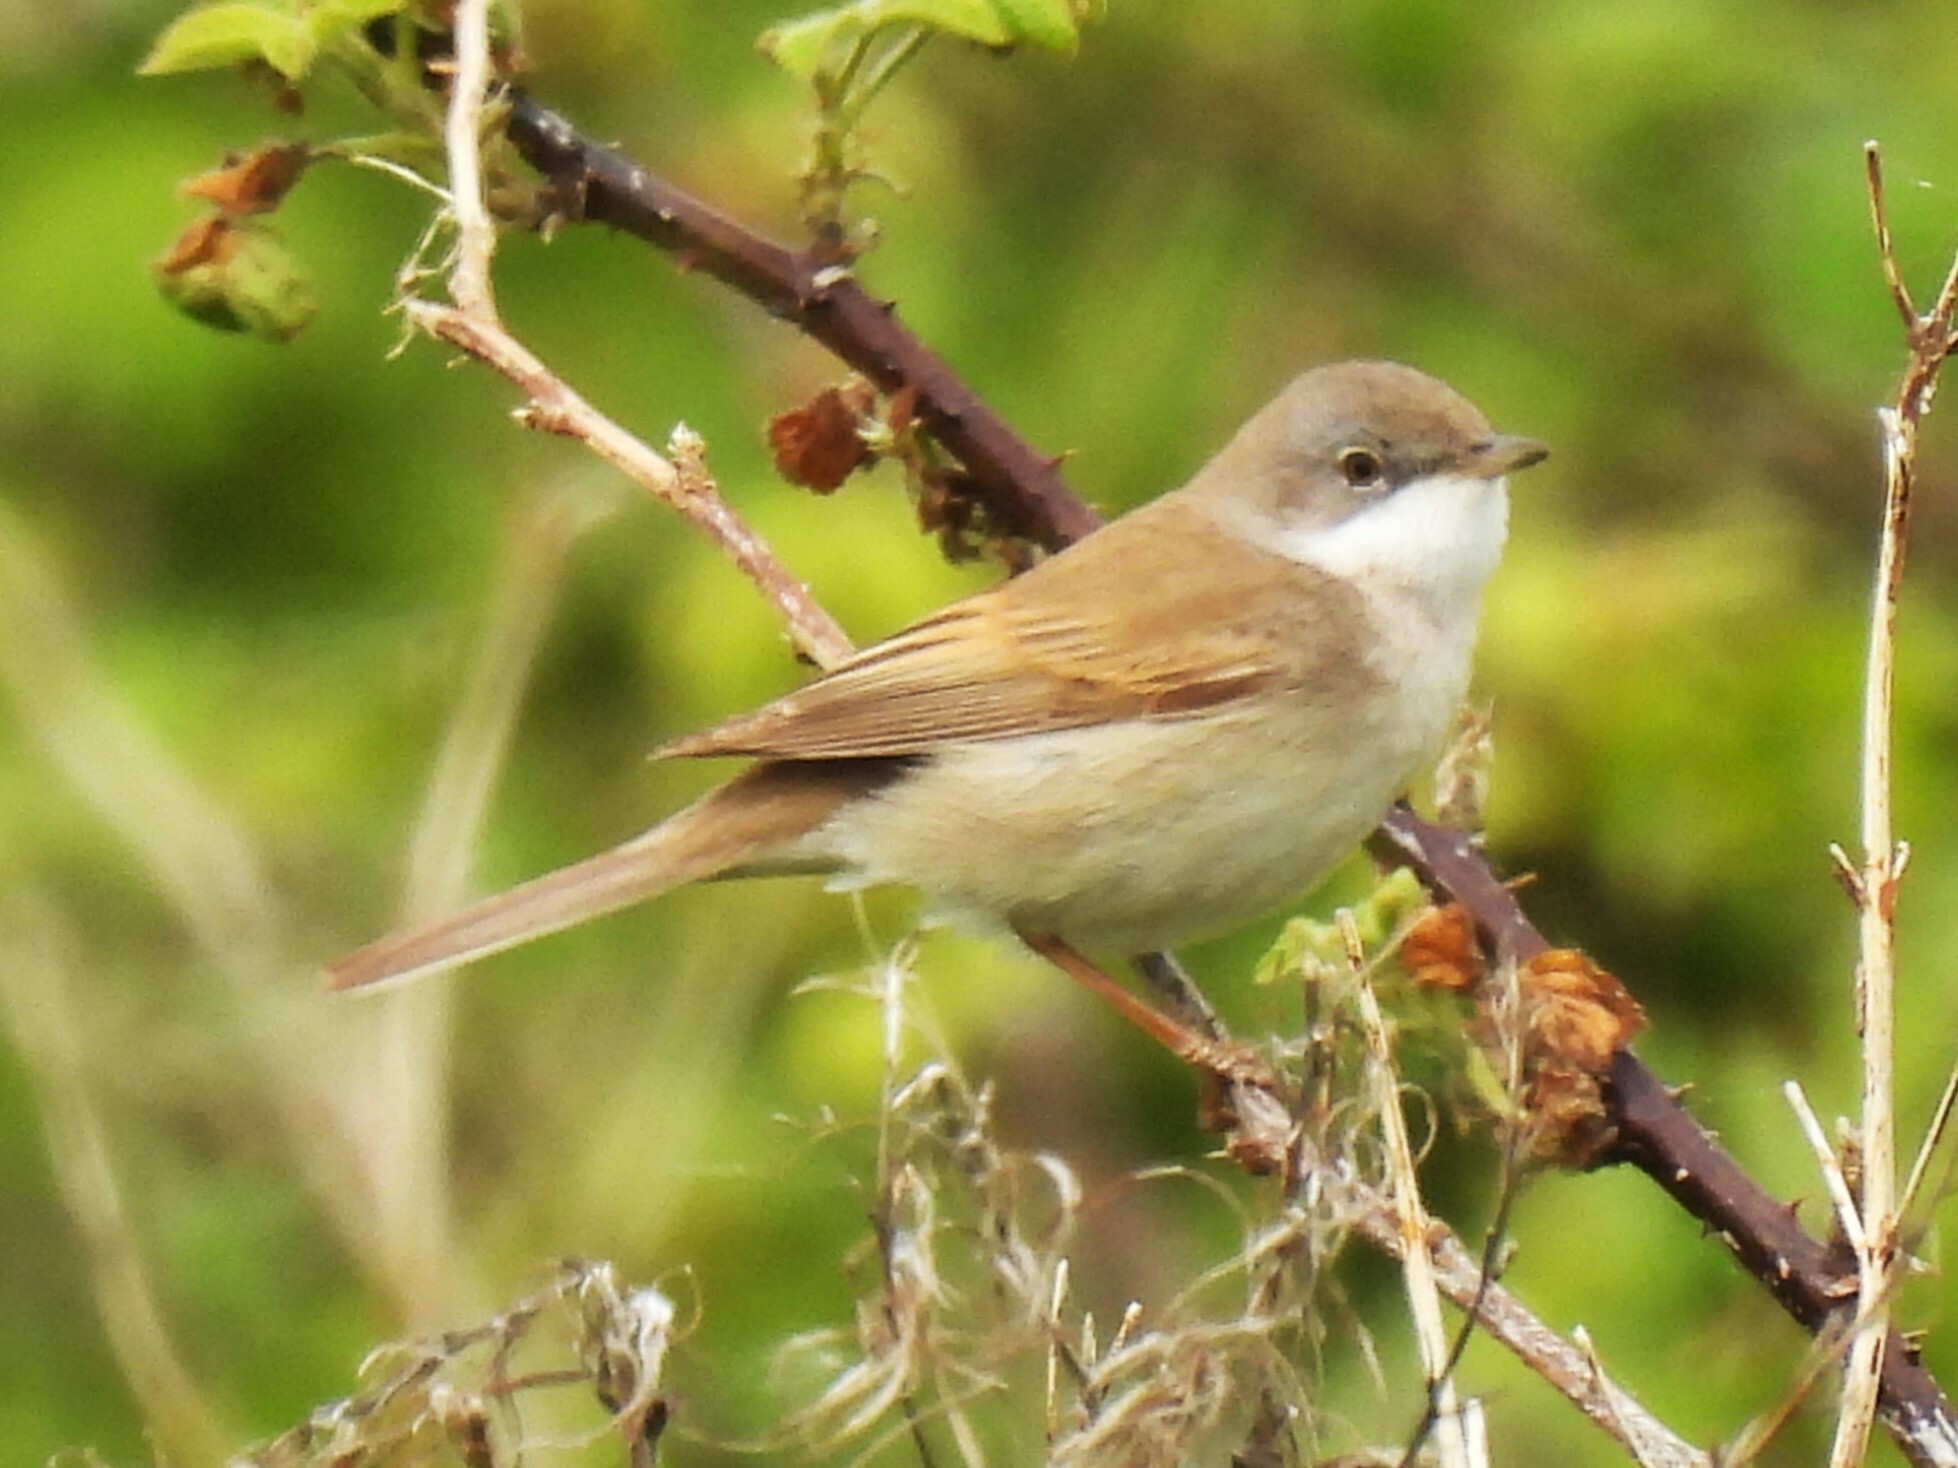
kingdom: Animalia
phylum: Chordata
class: Aves
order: Passeriformes
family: Sylviidae
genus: Sylvia
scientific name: Sylvia communis
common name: Common whitethroat
